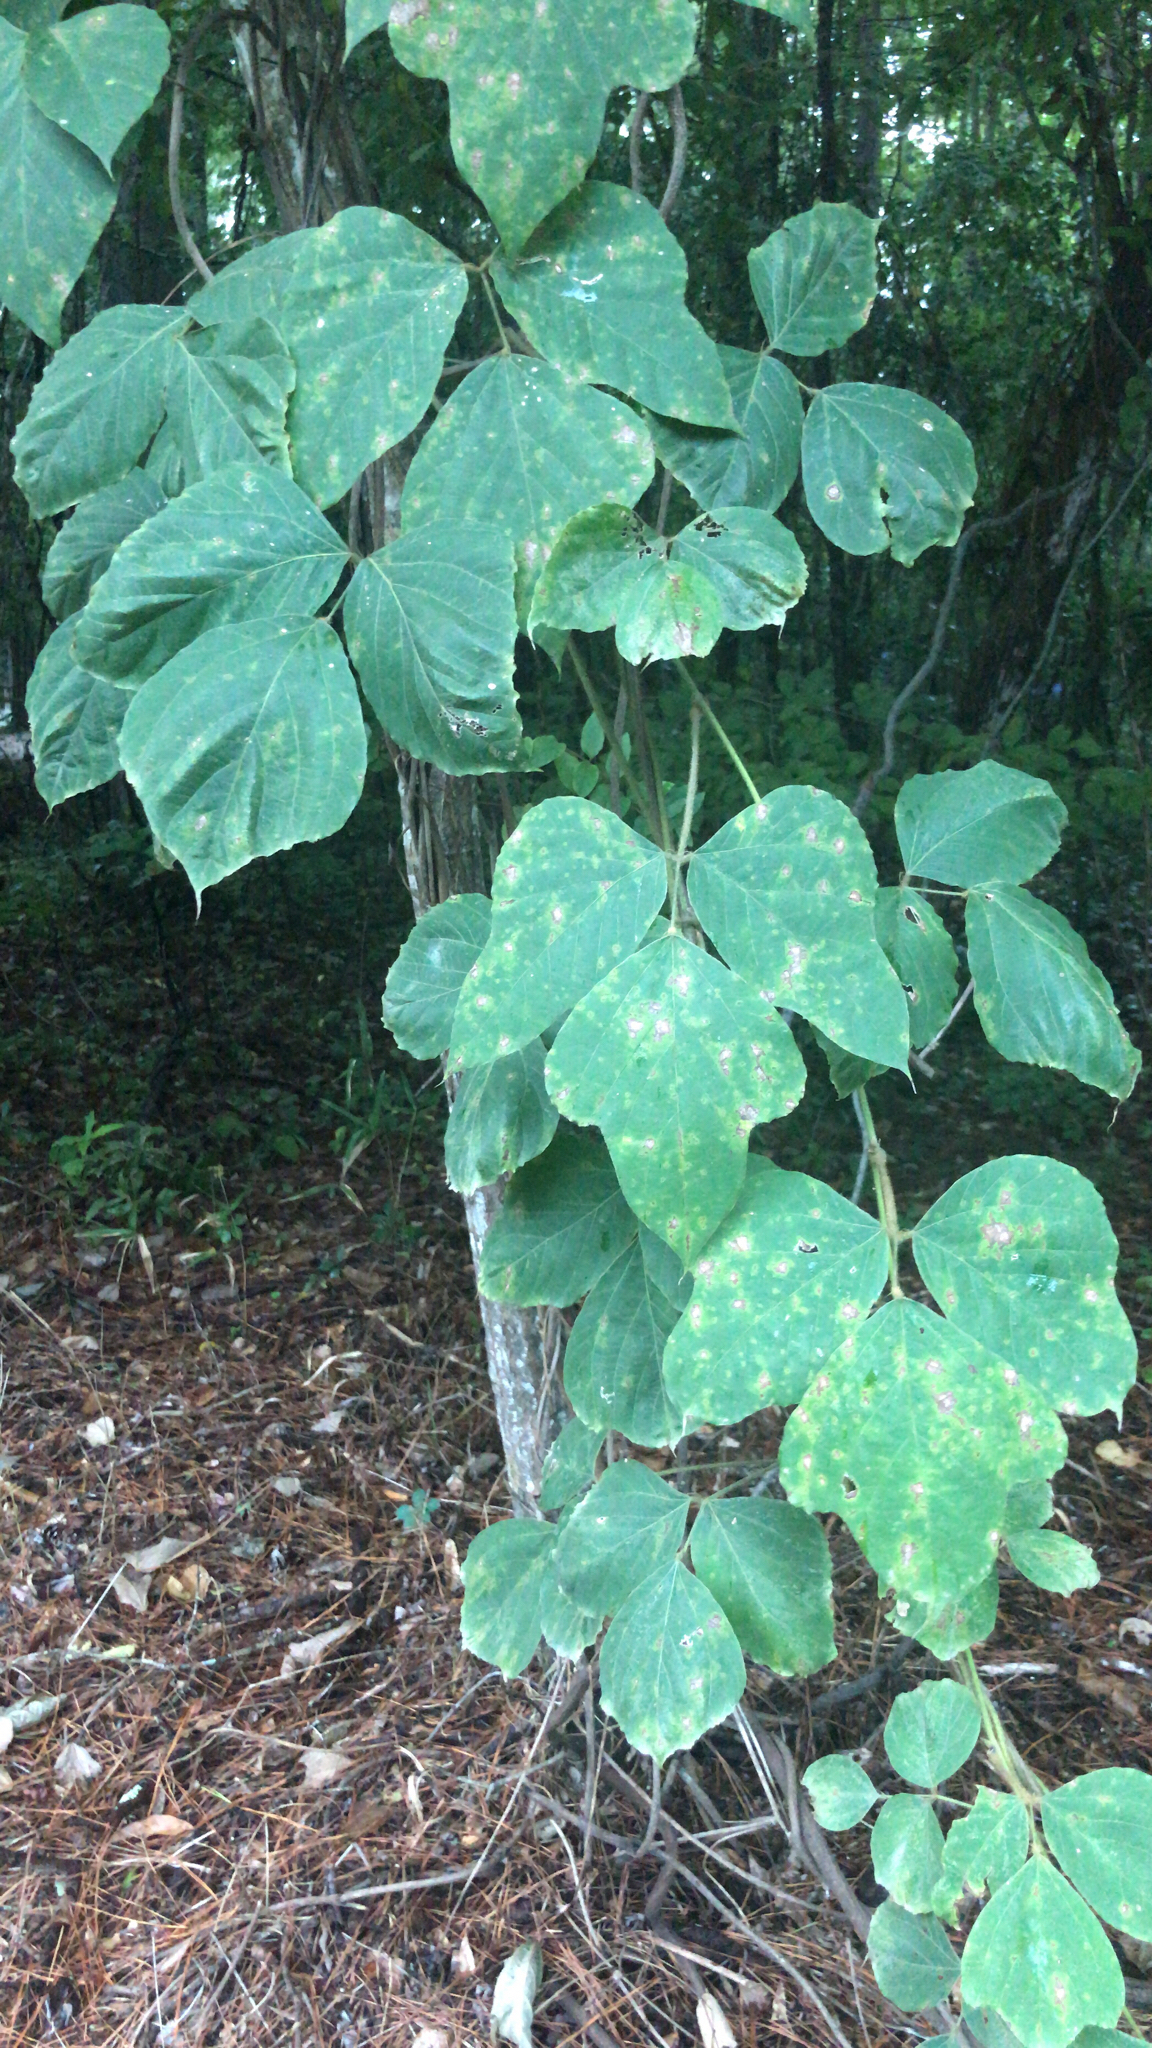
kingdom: Plantae
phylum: Tracheophyta
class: Magnoliopsida
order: Fabales
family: Fabaceae
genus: Pueraria
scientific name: Pueraria montana
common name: Kudzu
